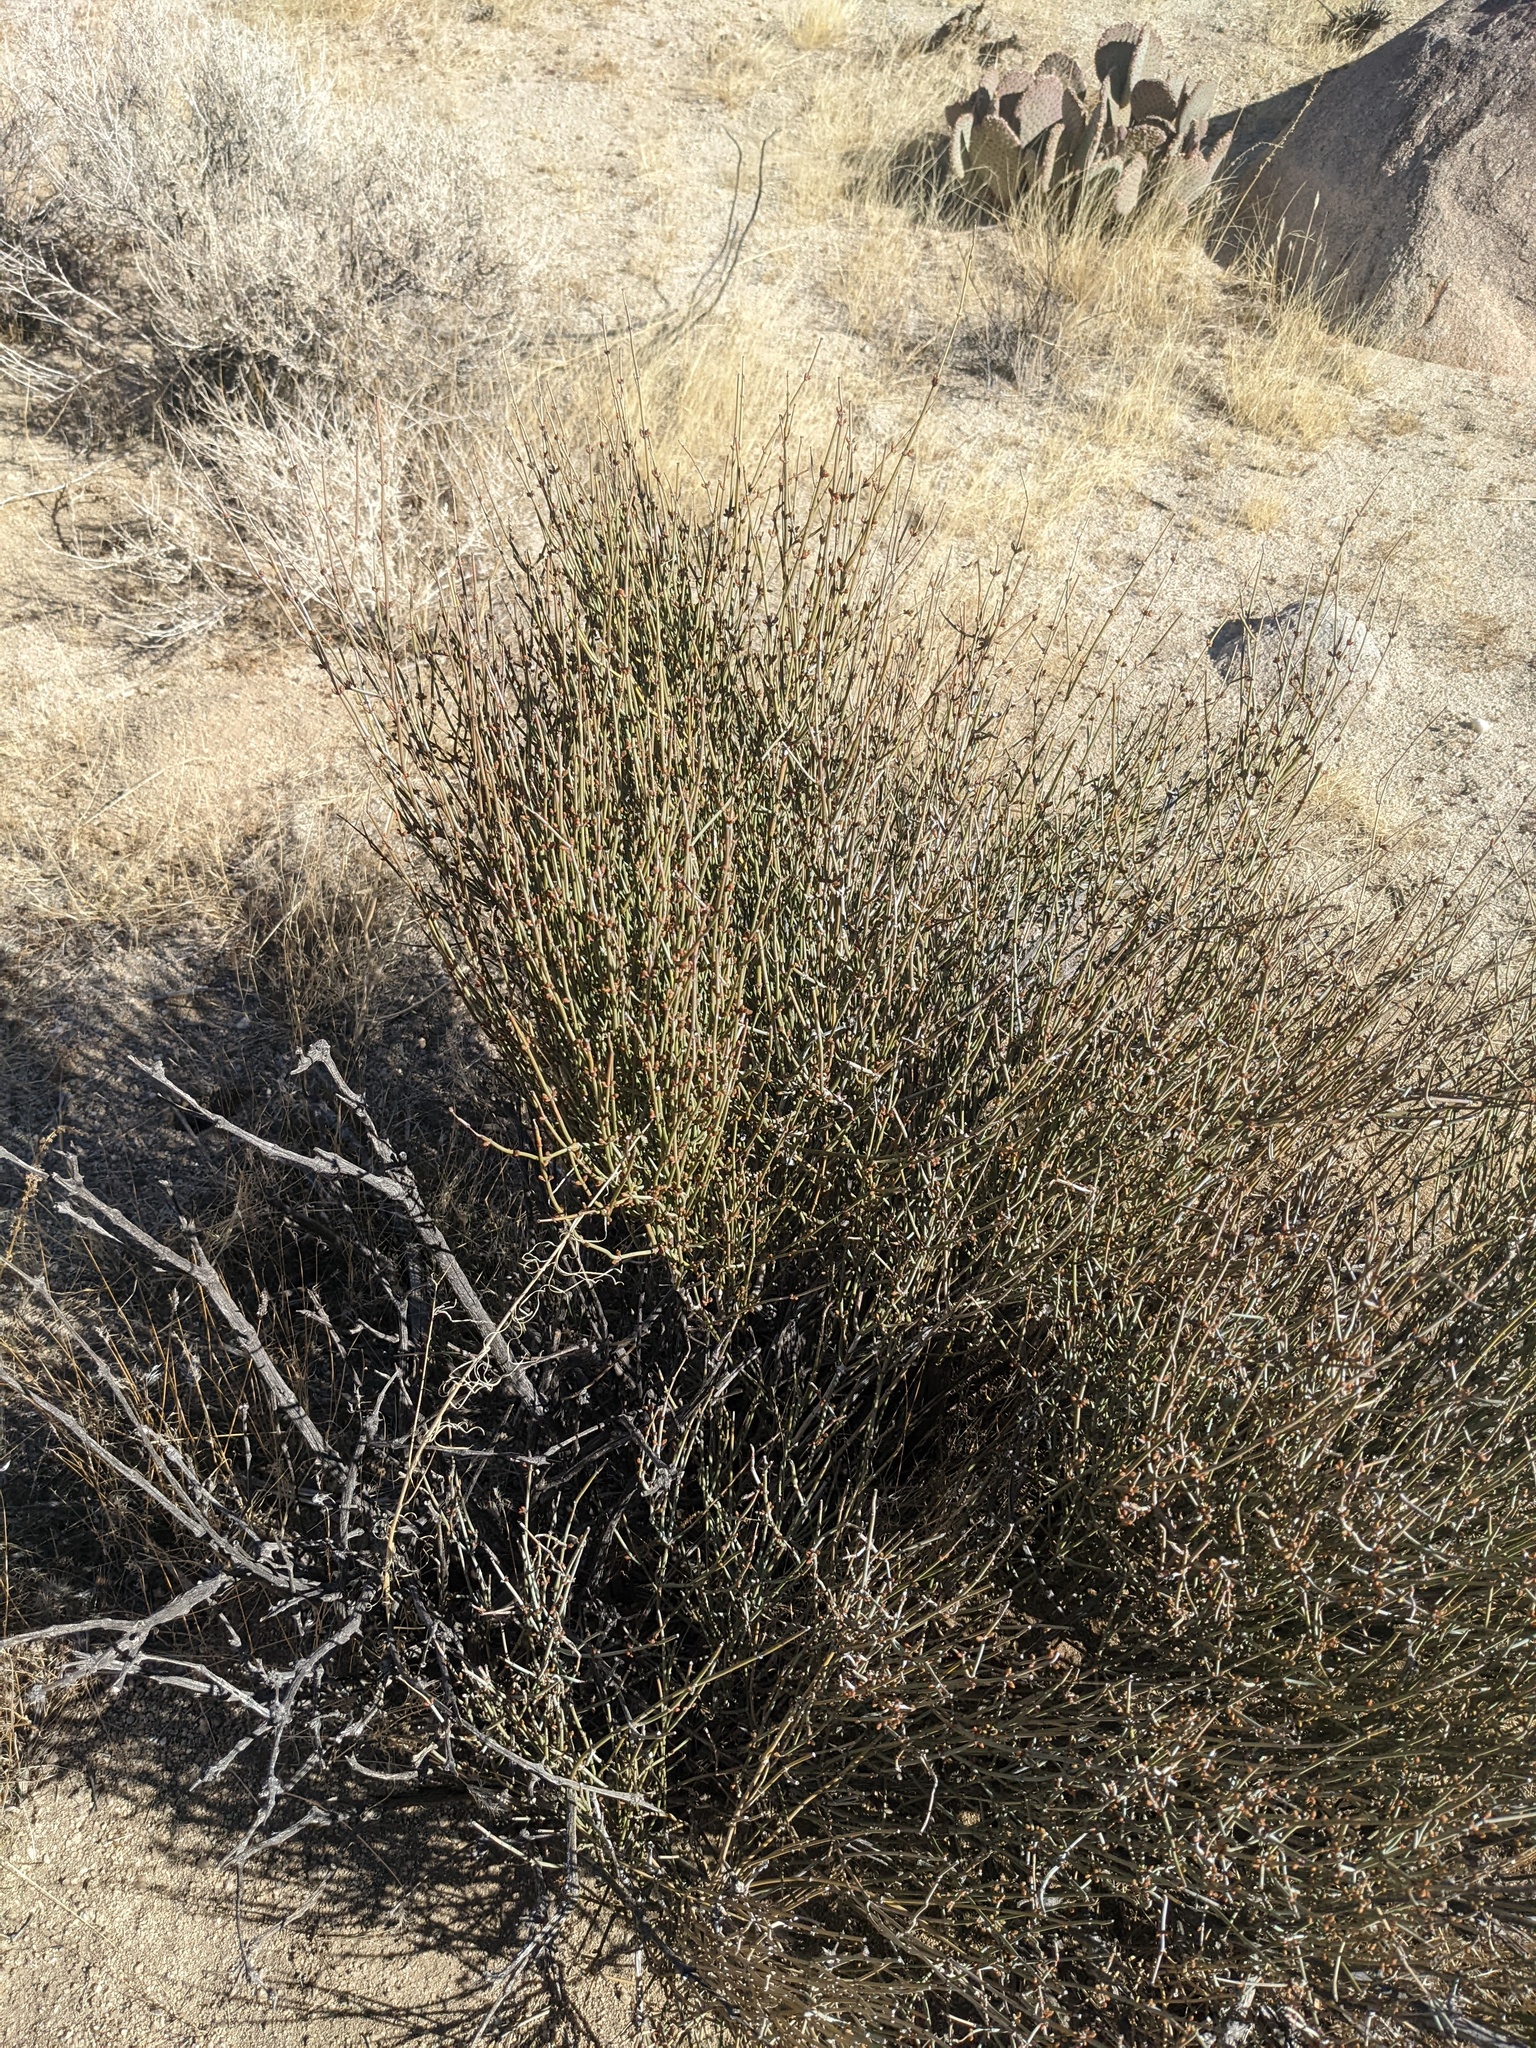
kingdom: Plantae
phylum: Tracheophyta
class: Gnetopsida
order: Ephedrales
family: Ephedraceae
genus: Ephedra
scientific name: Ephedra aspera
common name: Boundary ephedra
